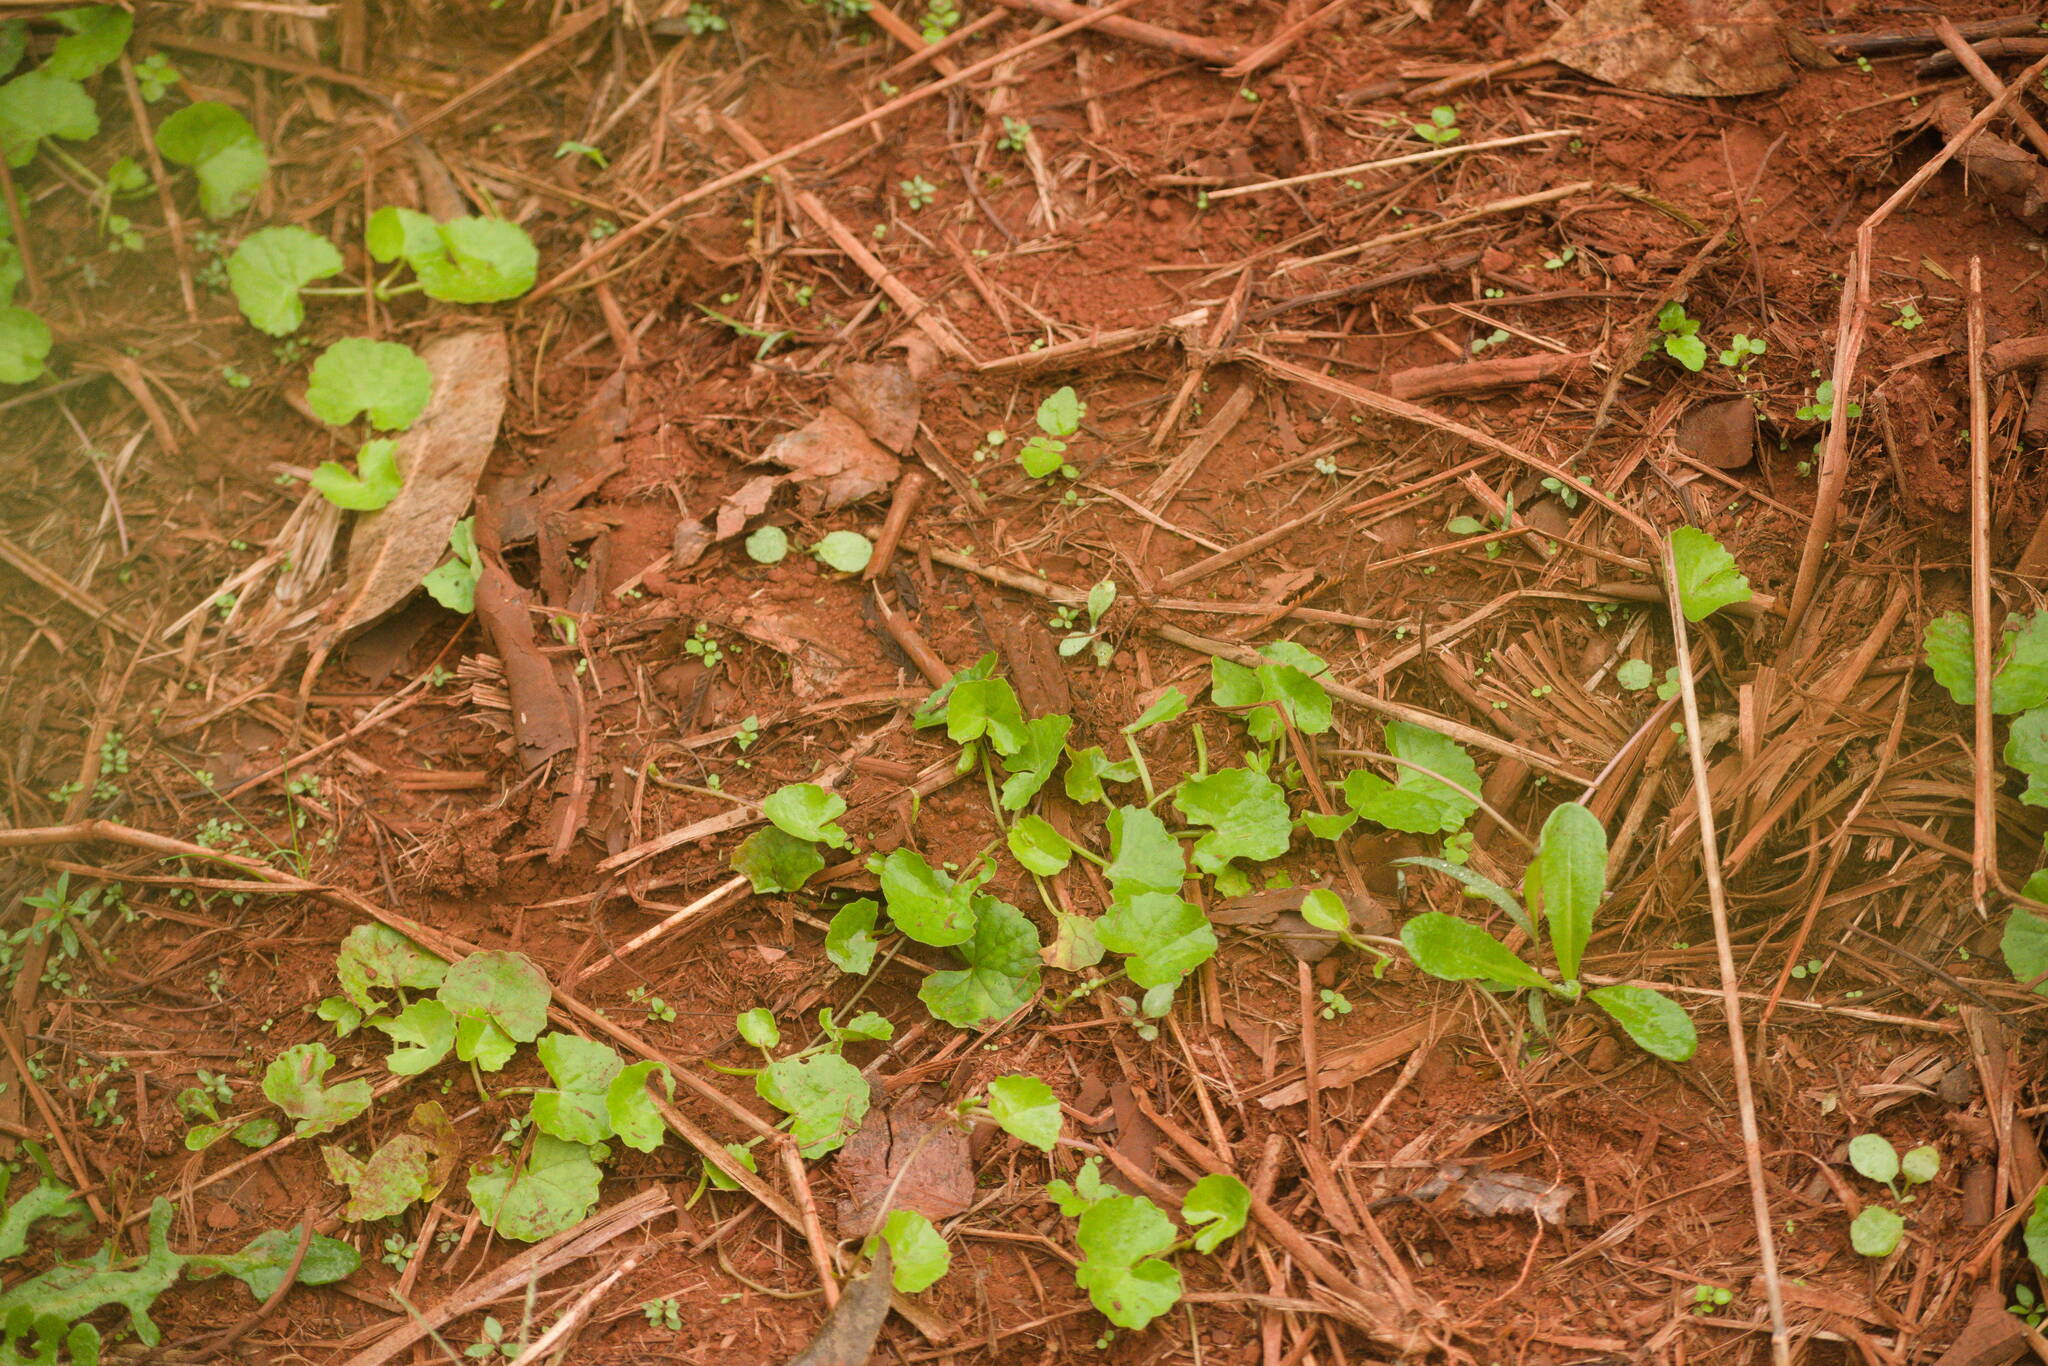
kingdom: Plantae
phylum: Tracheophyta
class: Magnoliopsida
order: Apiales
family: Apiaceae
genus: Centella
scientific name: Centella asiatica
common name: Spadeleaf
